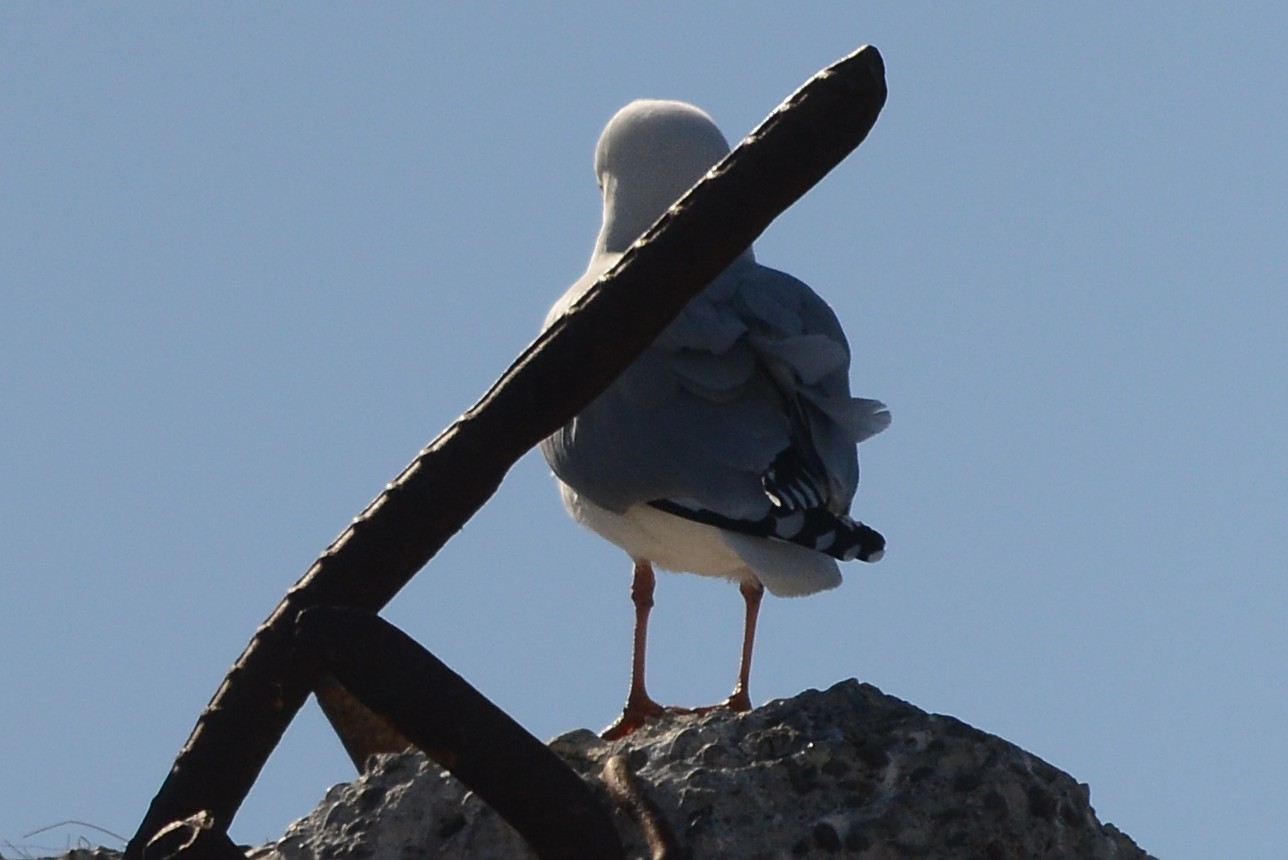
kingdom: Animalia
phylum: Chordata
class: Aves
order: Charadriiformes
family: Laridae
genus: Chroicocephalus
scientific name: Chroicocephalus novaehollandiae
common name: Silver gull
